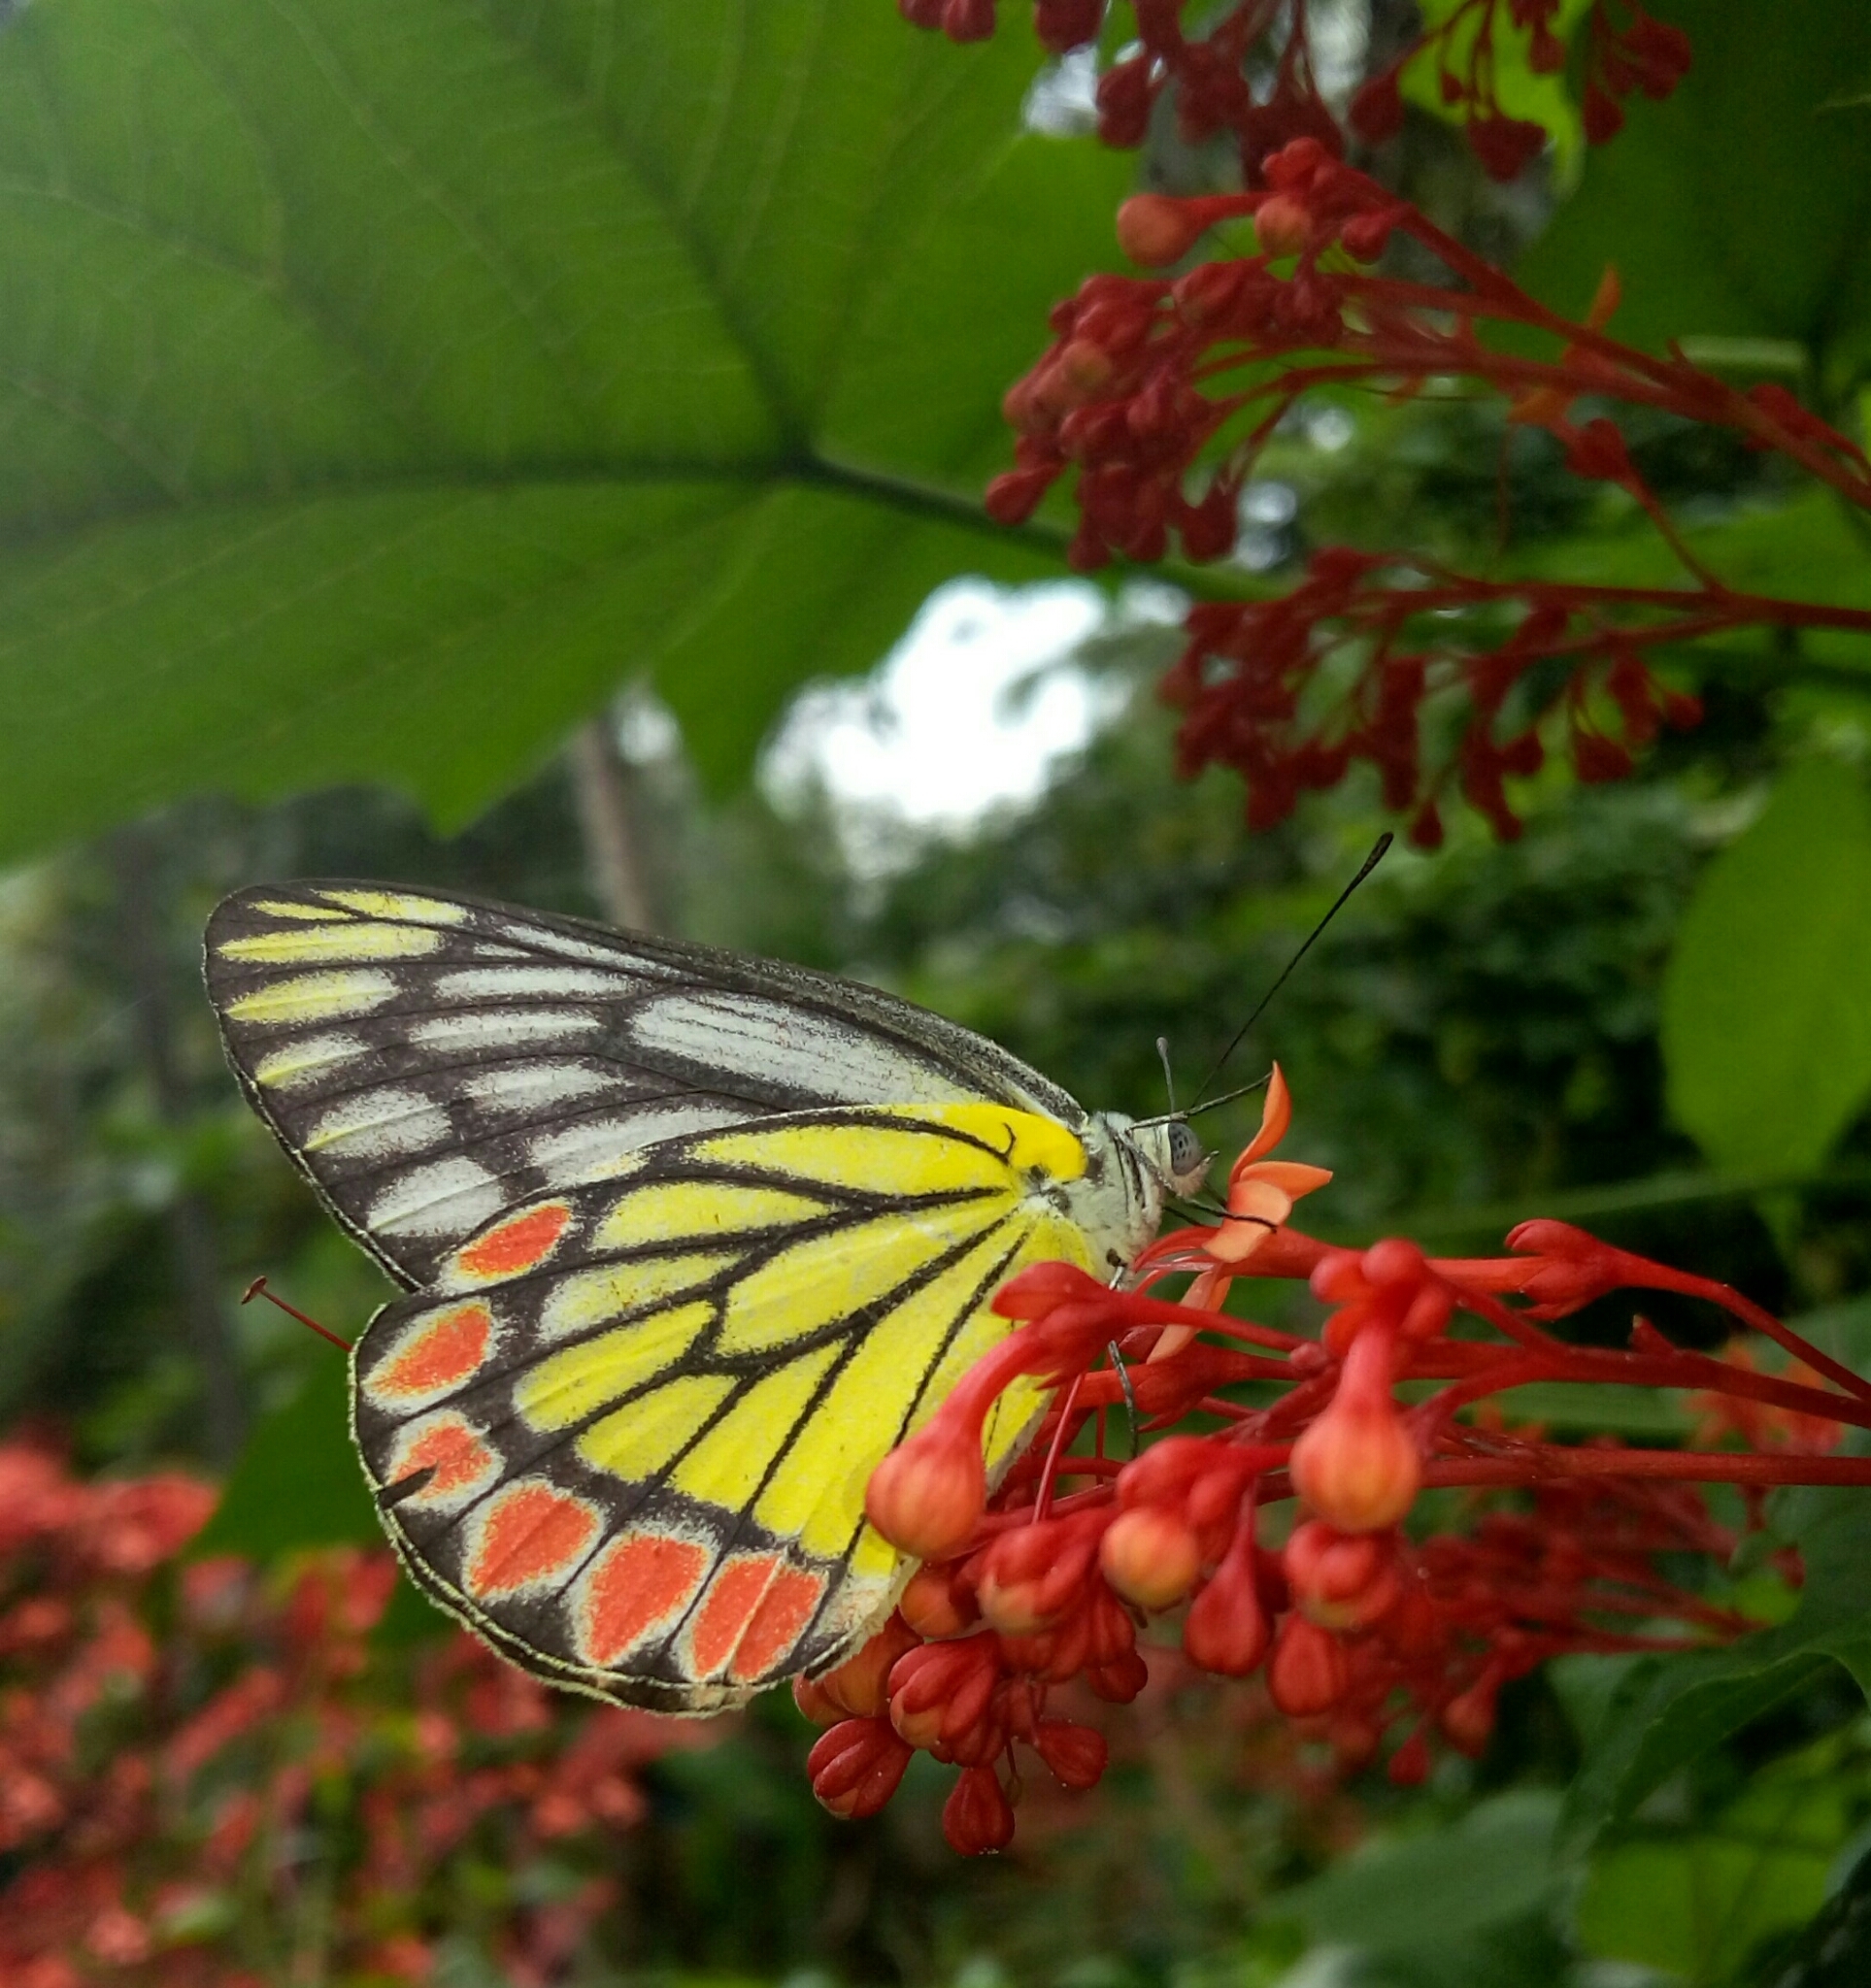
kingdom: Animalia
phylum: Arthropoda
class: Insecta
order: Lepidoptera
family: Pieridae
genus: Delias
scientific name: Delias eucharis
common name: Common jezebel
